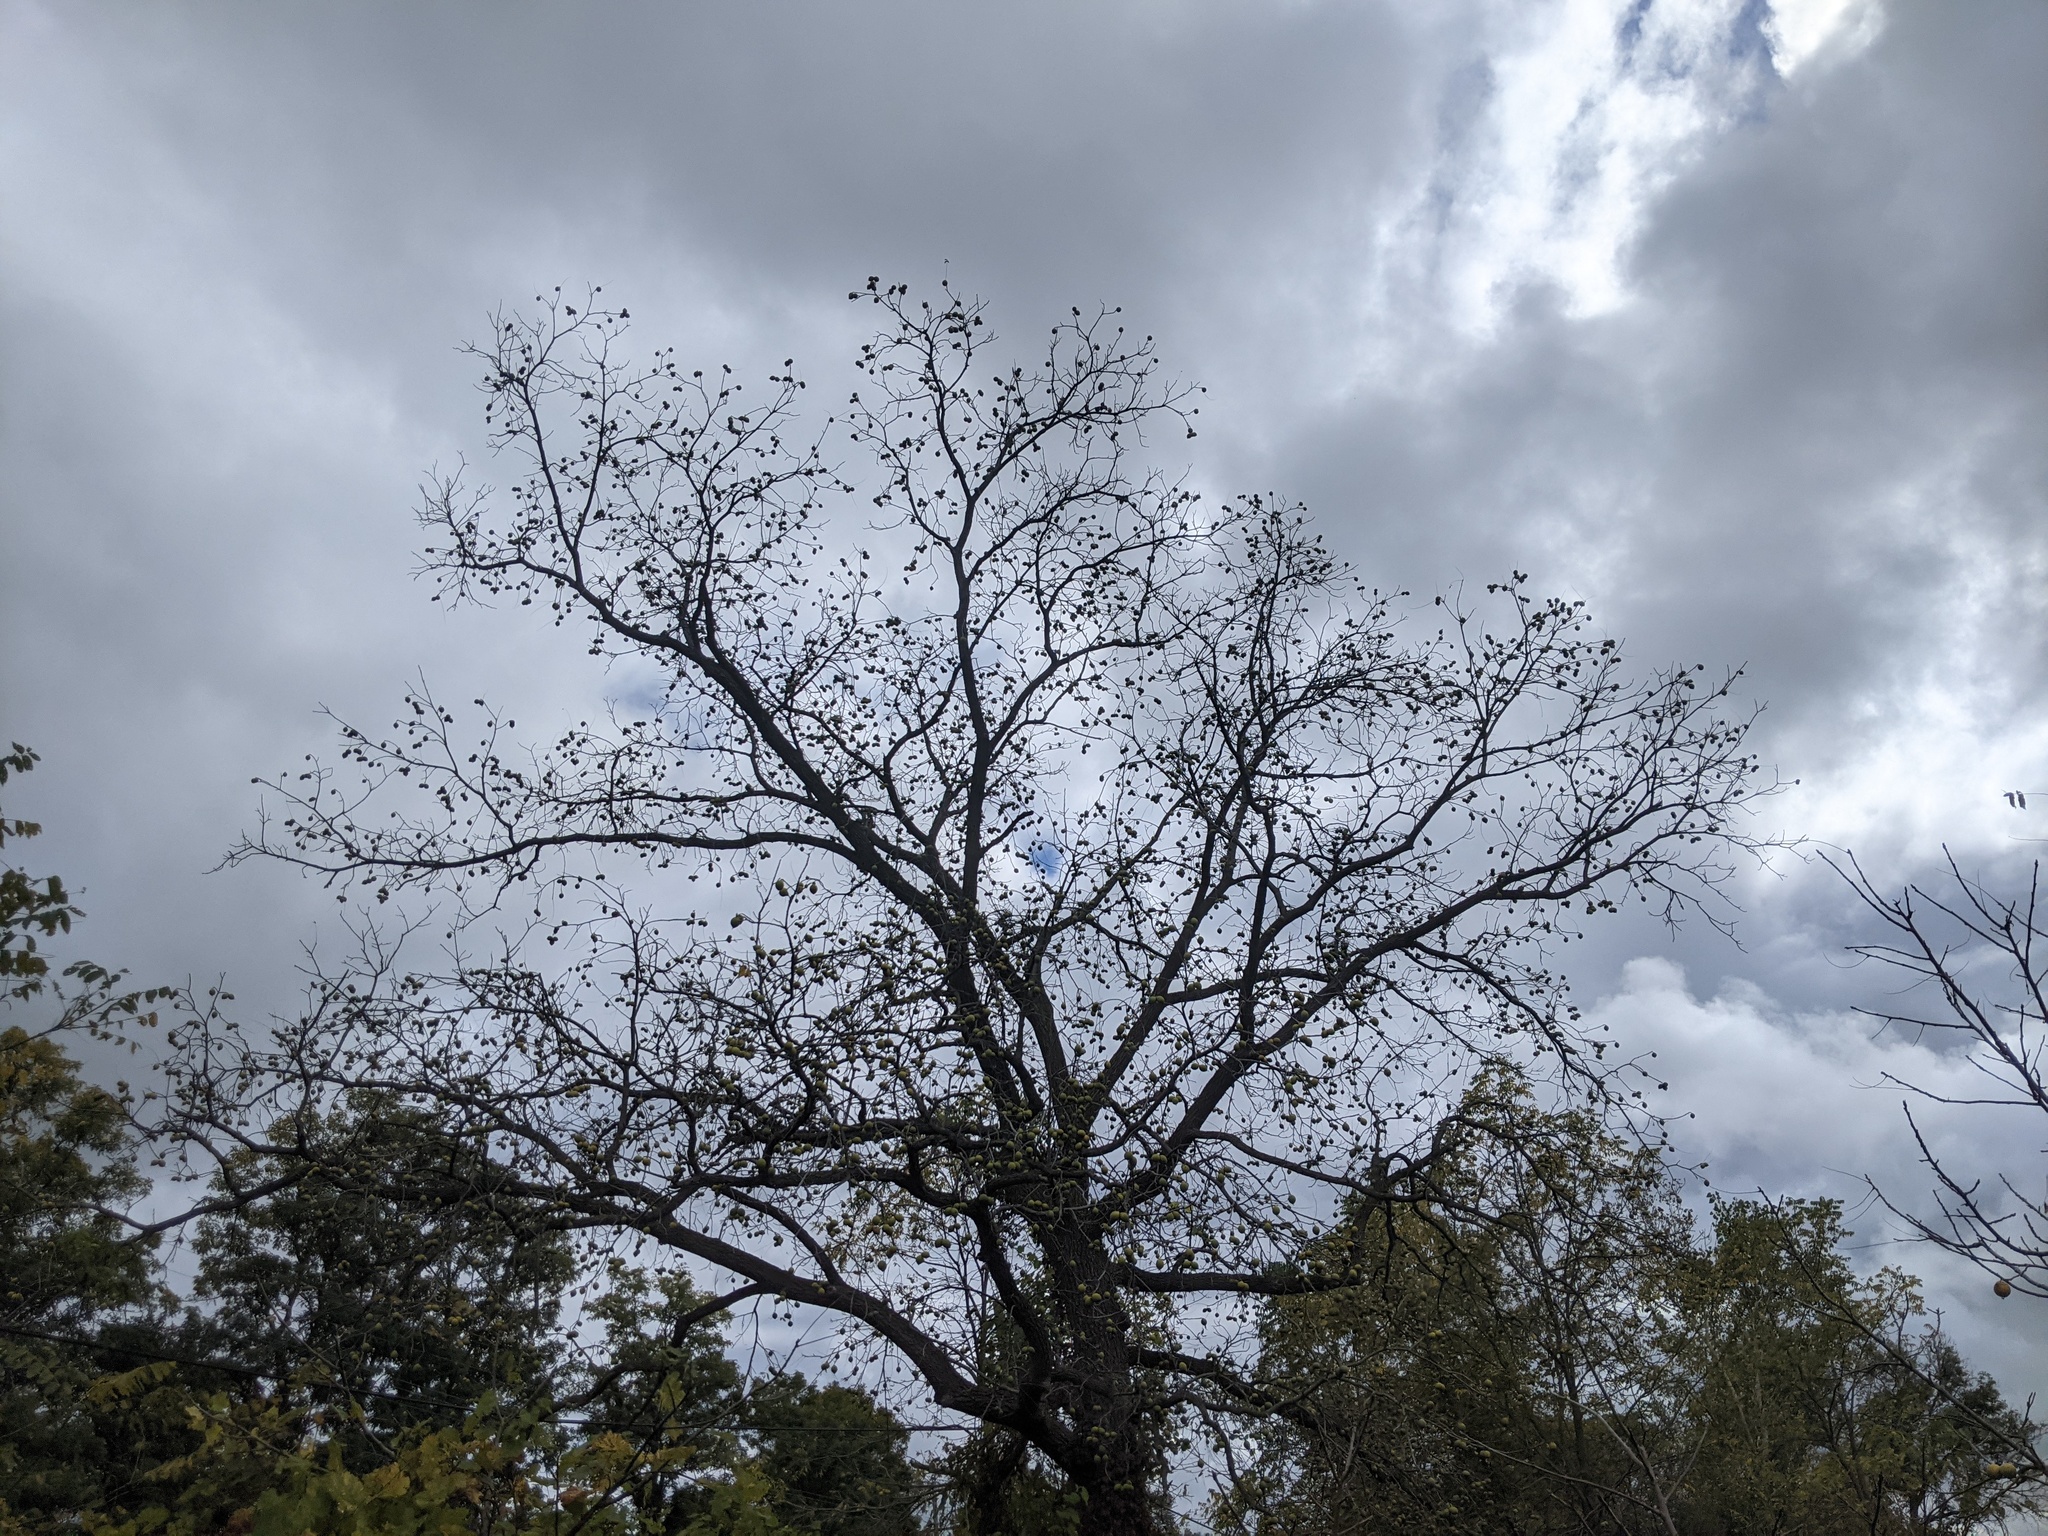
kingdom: Plantae
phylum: Tracheophyta
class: Magnoliopsida
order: Fagales
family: Juglandaceae
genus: Juglans
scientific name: Juglans nigra
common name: Black walnut
